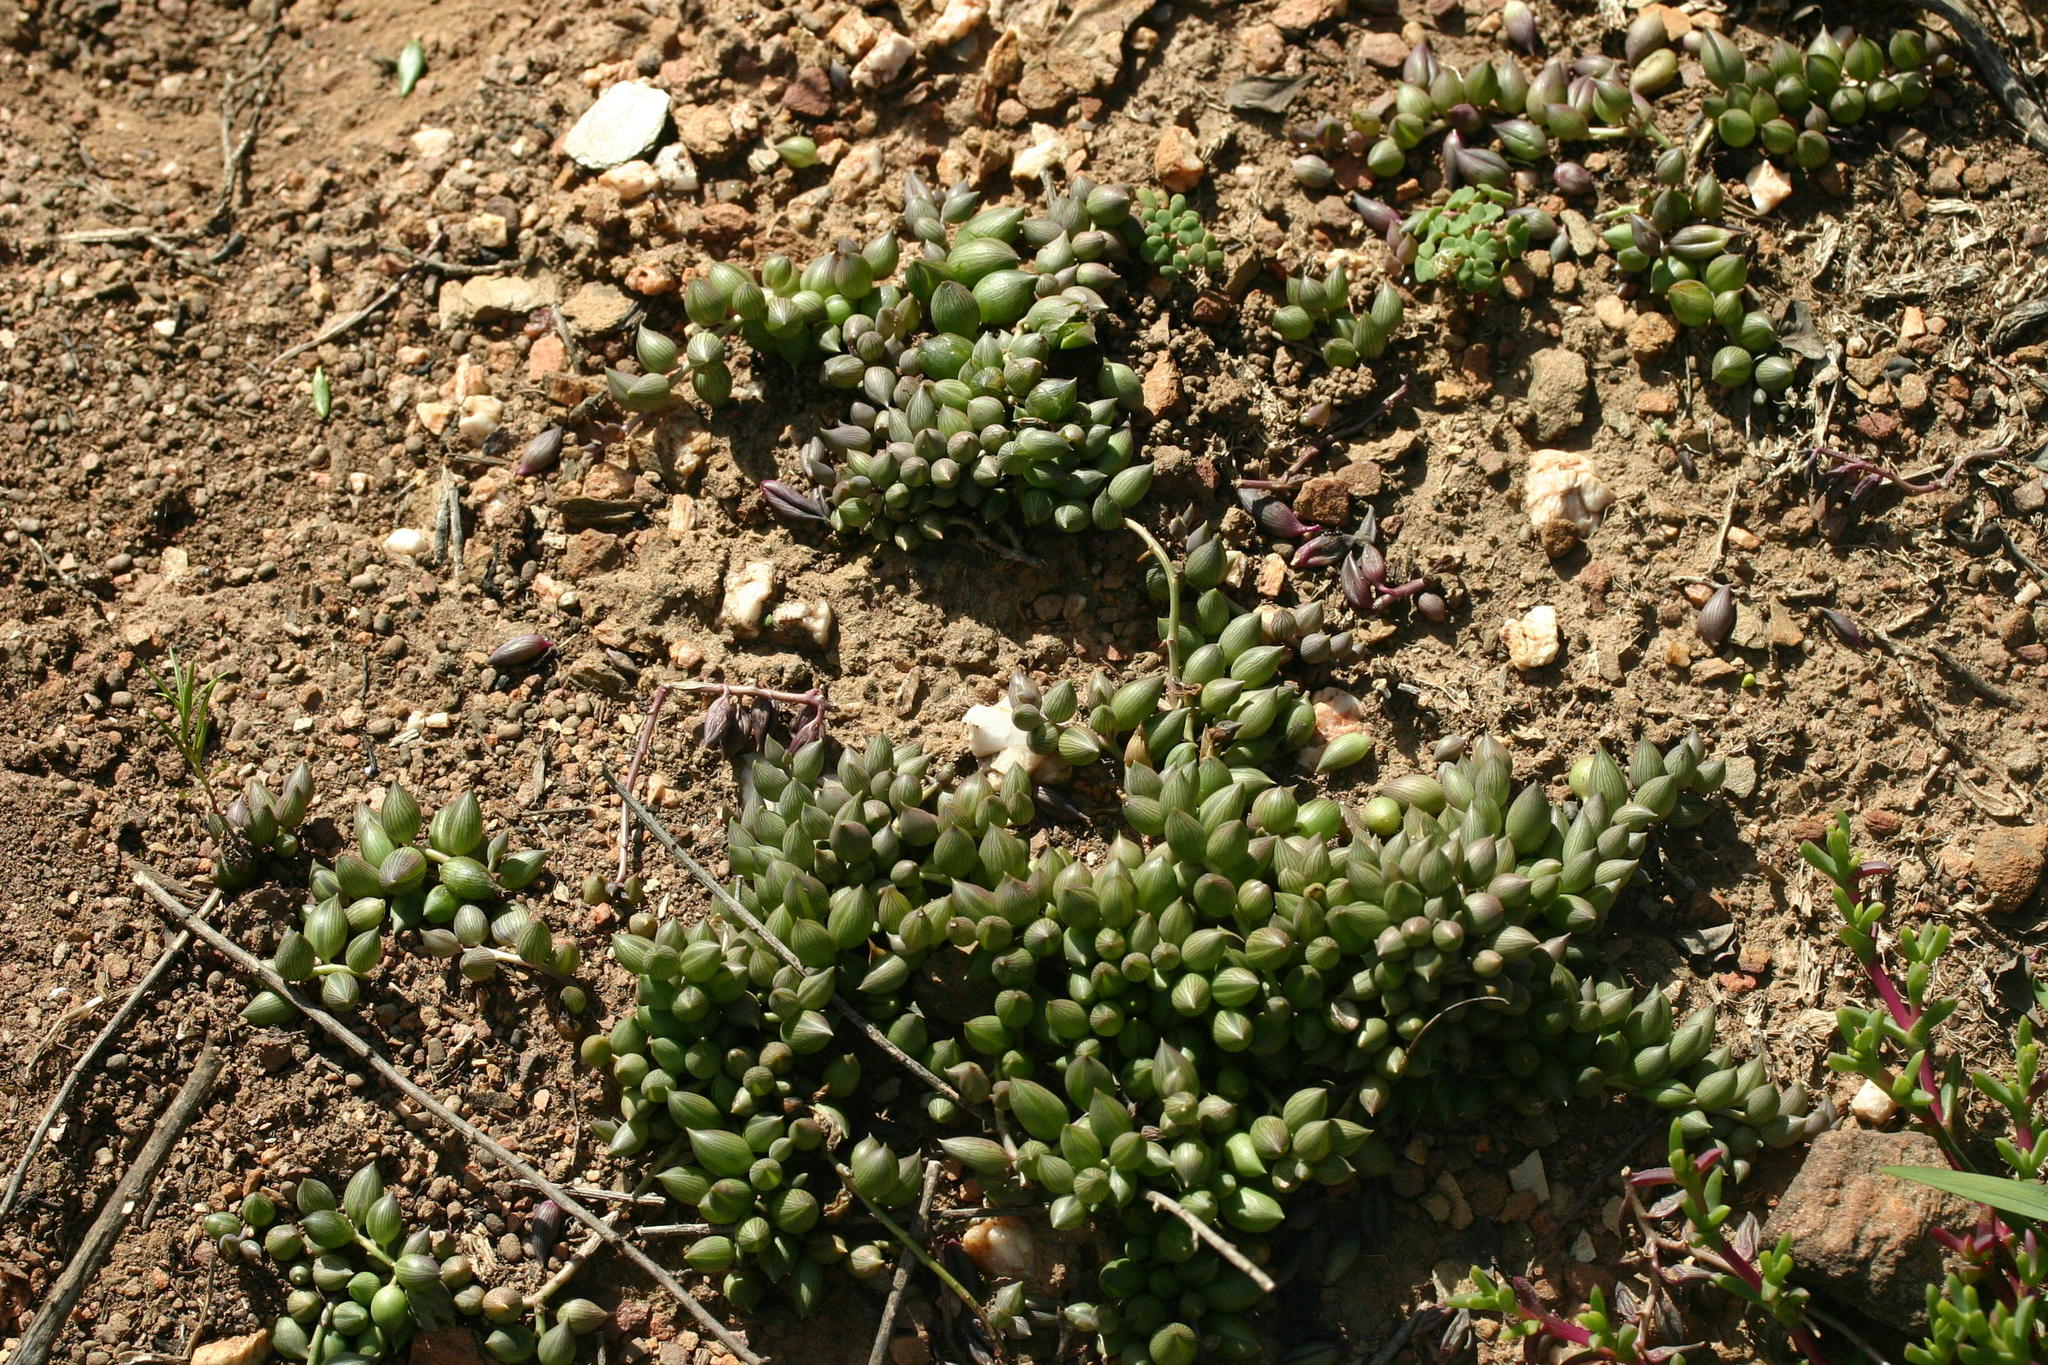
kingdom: Plantae
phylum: Tracheophyta
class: Magnoliopsida
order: Asterales
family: Asteraceae
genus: Curio
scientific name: Curio radicans
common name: Creeping-berry
